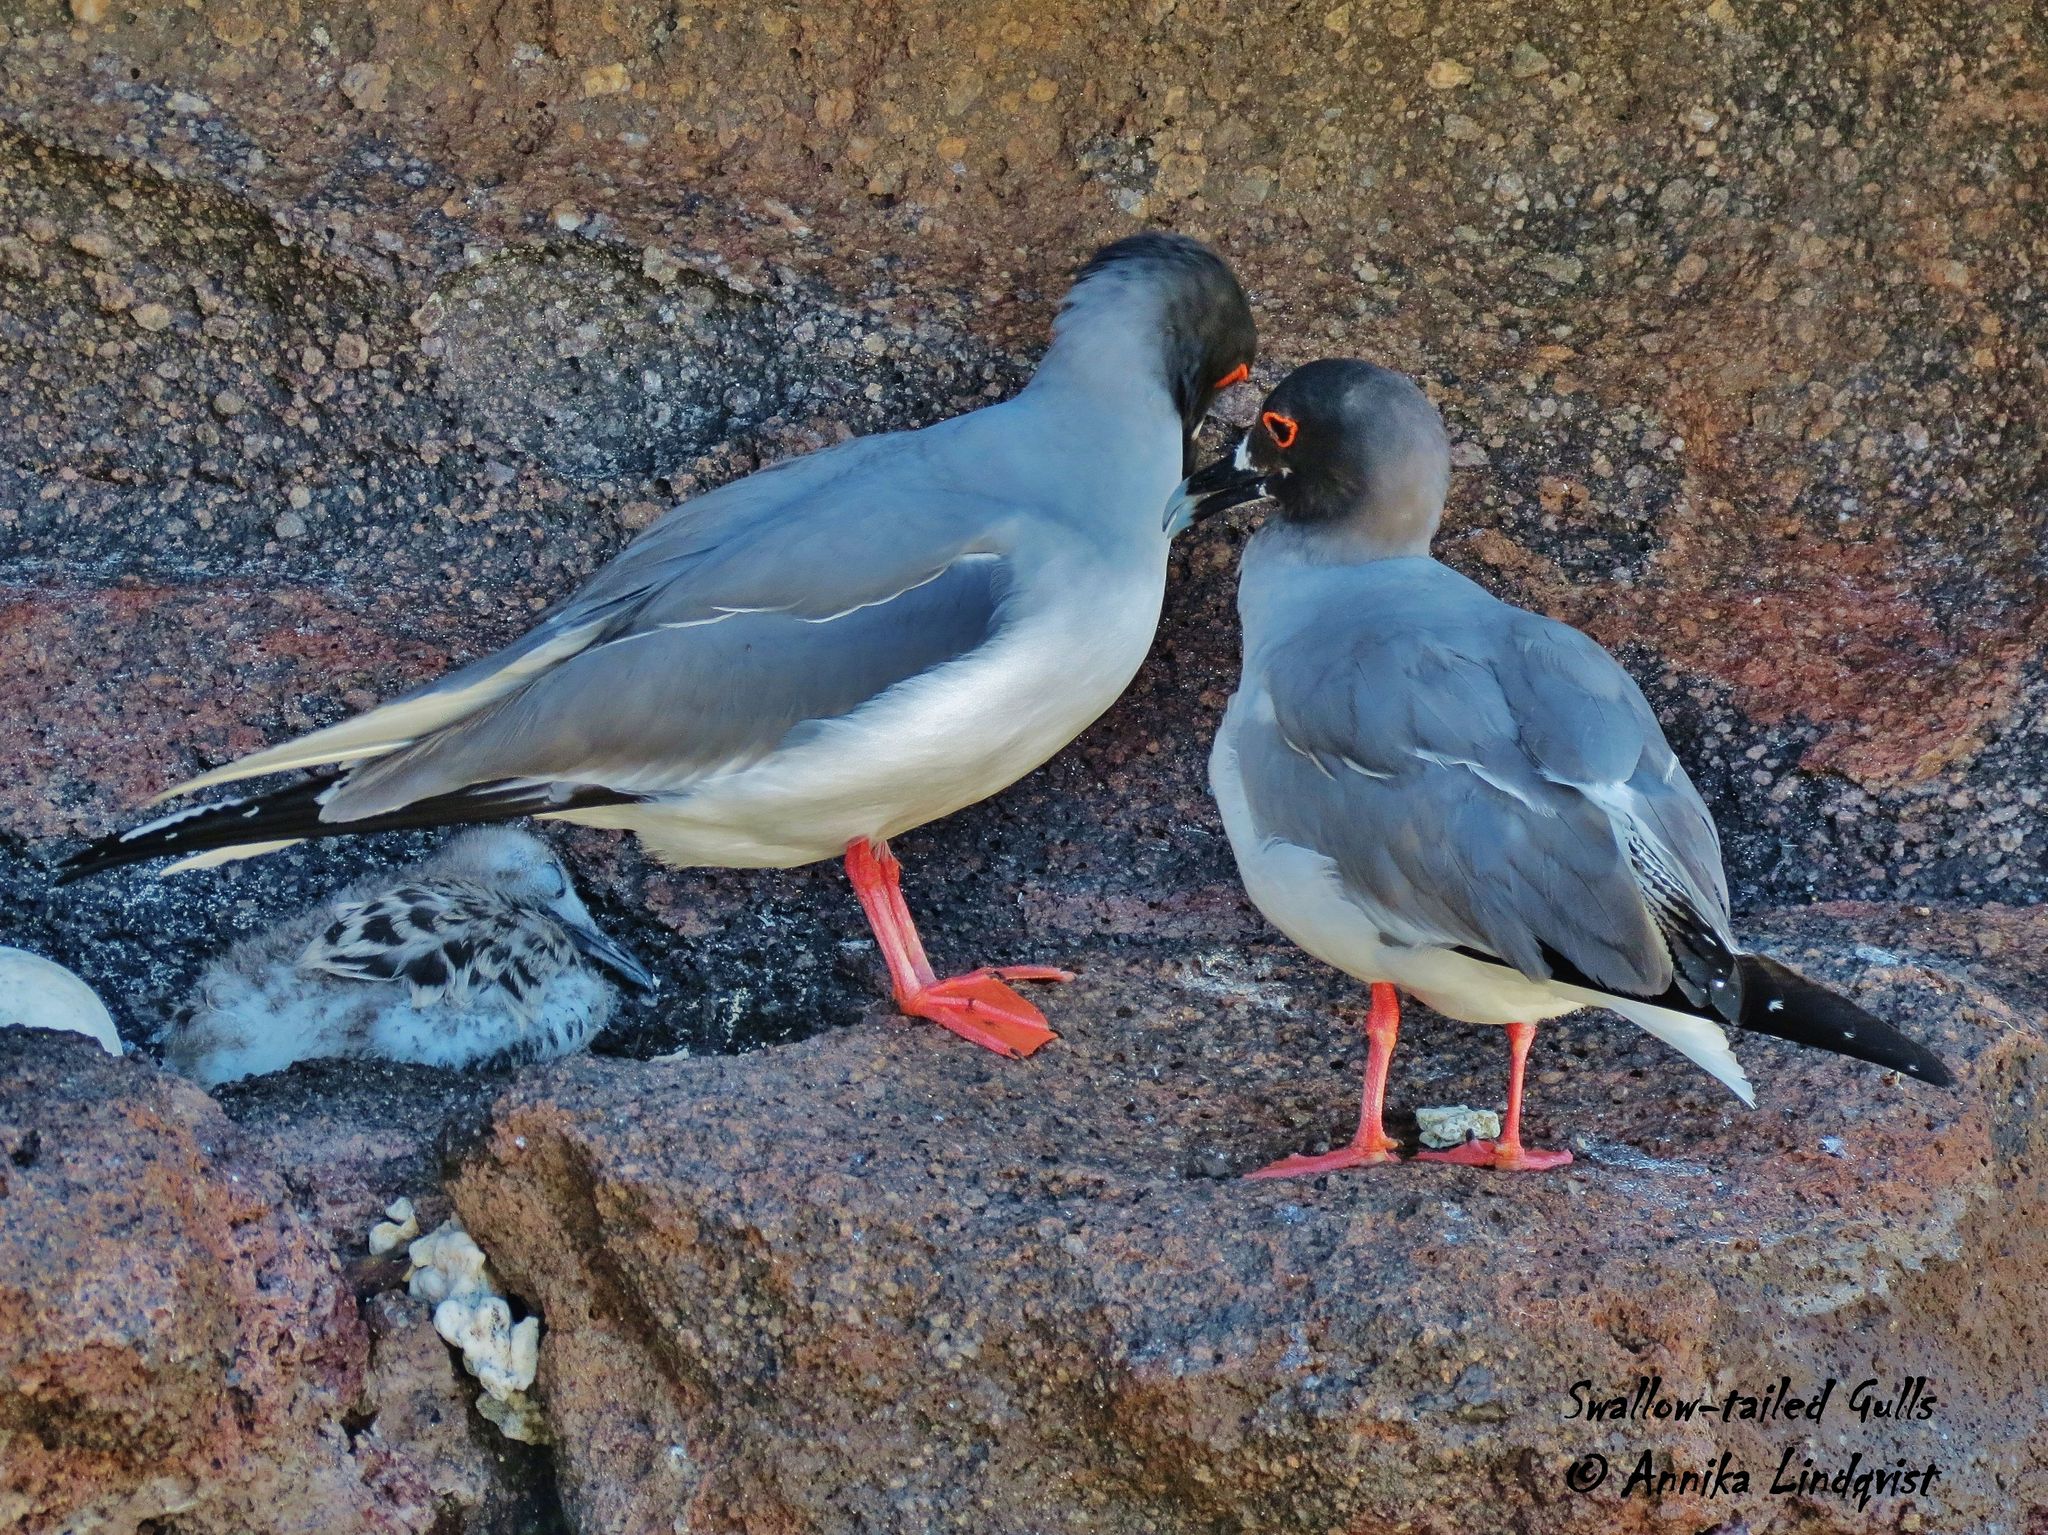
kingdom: Animalia
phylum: Chordata
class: Aves
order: Charadriiformes
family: Laridae
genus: Creagrus
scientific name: Creagrus furcatus
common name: Swallow-tailed gull
